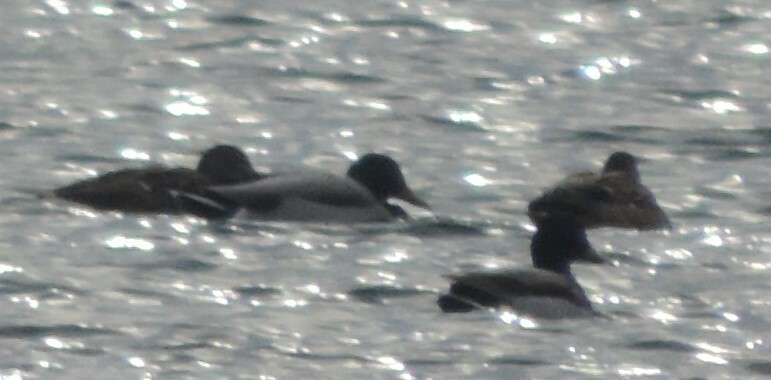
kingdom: Animalia
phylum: Chordata
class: Aves
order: Anseriformes
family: Anatidae
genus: Anas
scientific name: Anas platyrhynchos
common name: Mallard
